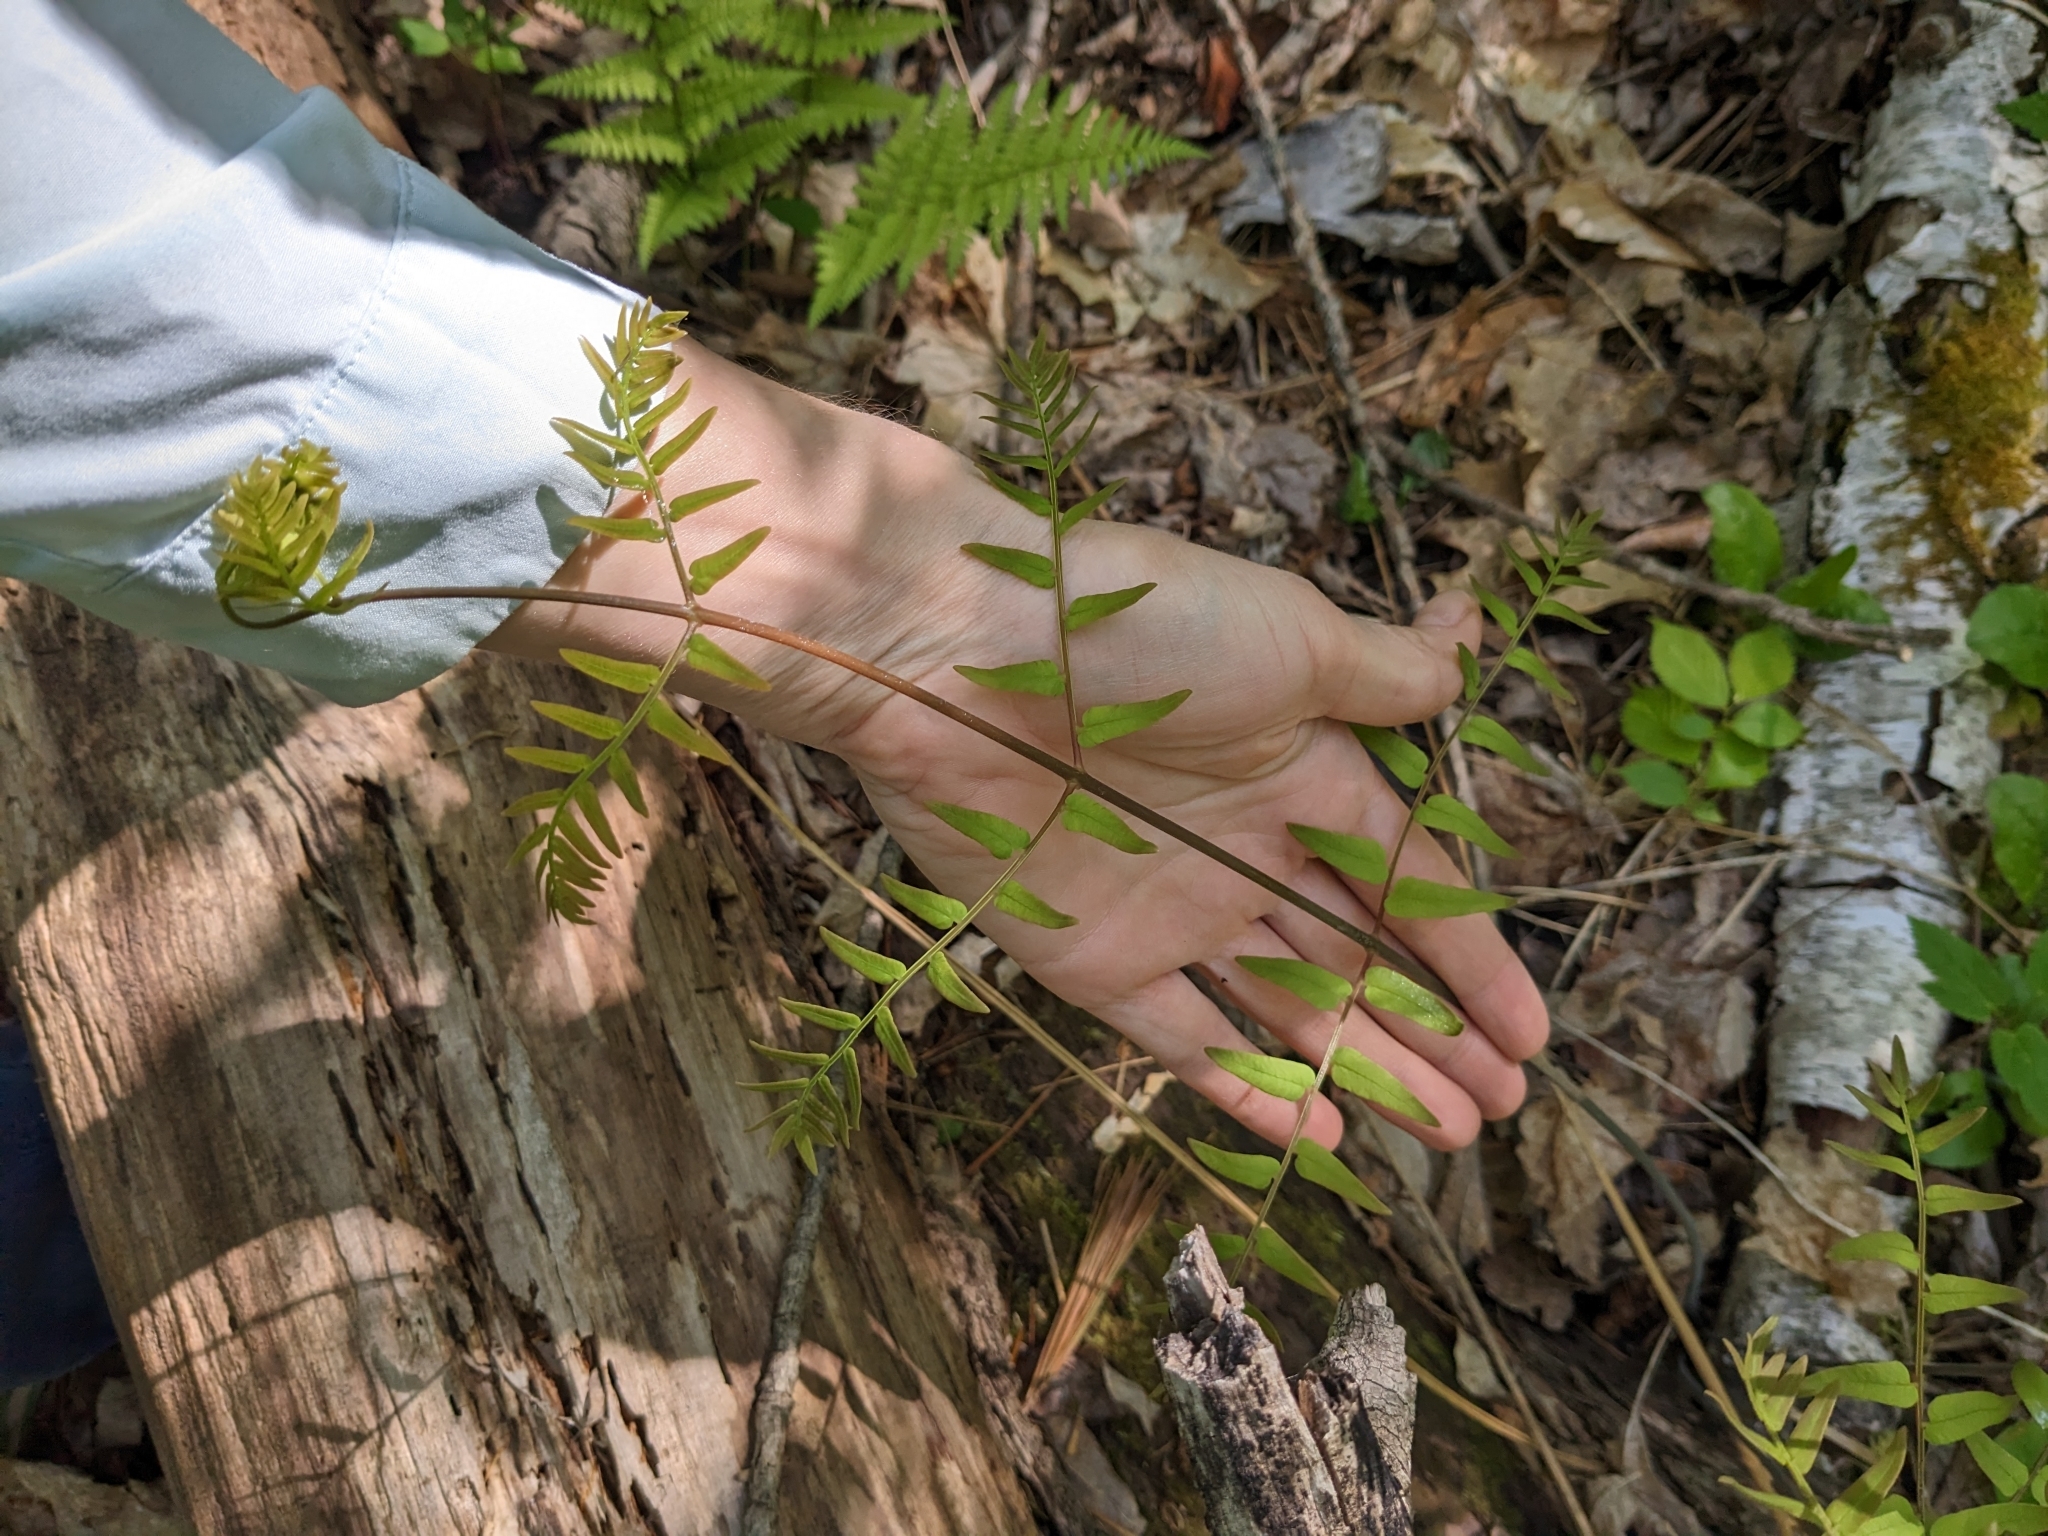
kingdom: Plantae
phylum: Tracheophyta
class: Polypodiopsida
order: Osmundales
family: Osmundaceae
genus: Osmunda
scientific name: Osmunda spectabilis
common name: American royal fern
